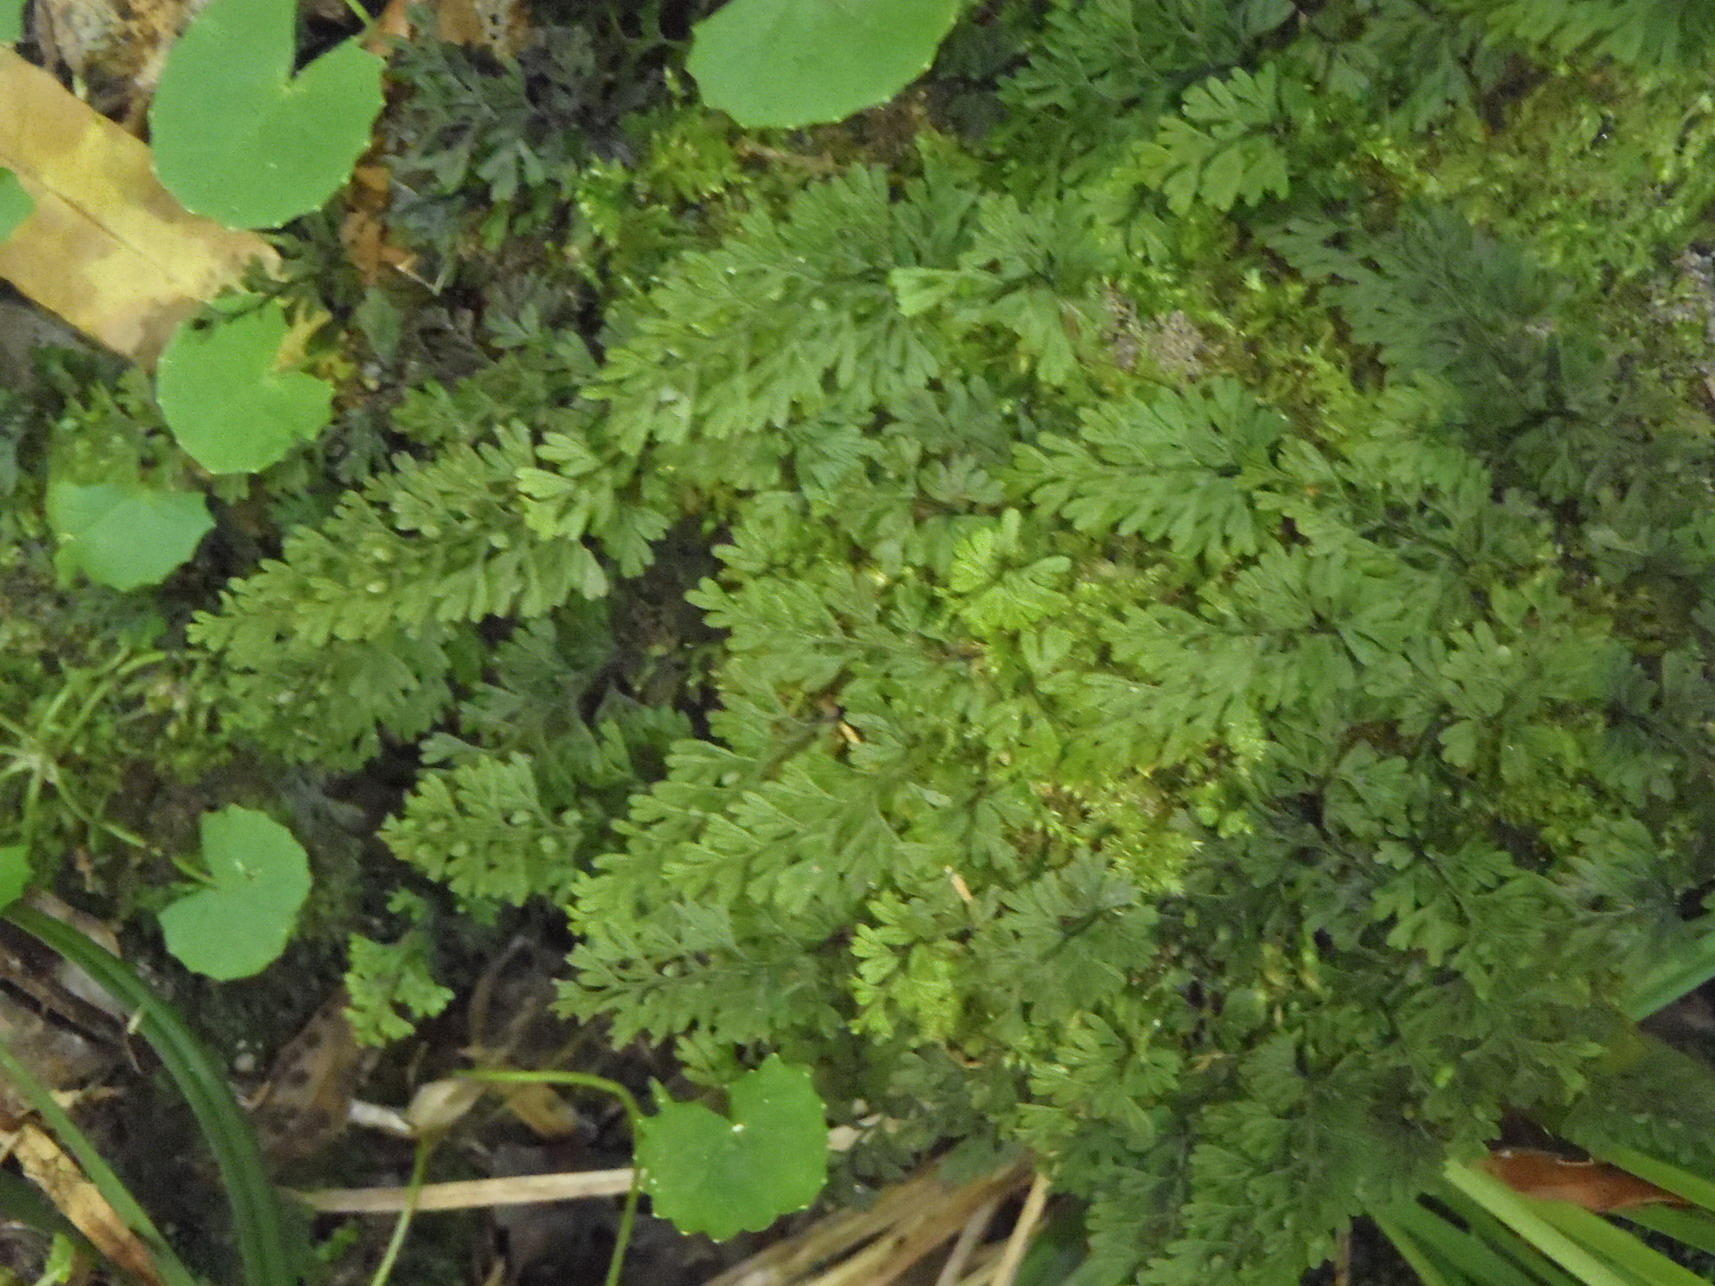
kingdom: Plantae
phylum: Tracheophyta
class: Polypodiopsida
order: Hymenophyllales
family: Hymenophyllaceae
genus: Hymenophyllum
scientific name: Hymenophyllum tunbrigense
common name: Tunbridge filmy fern
